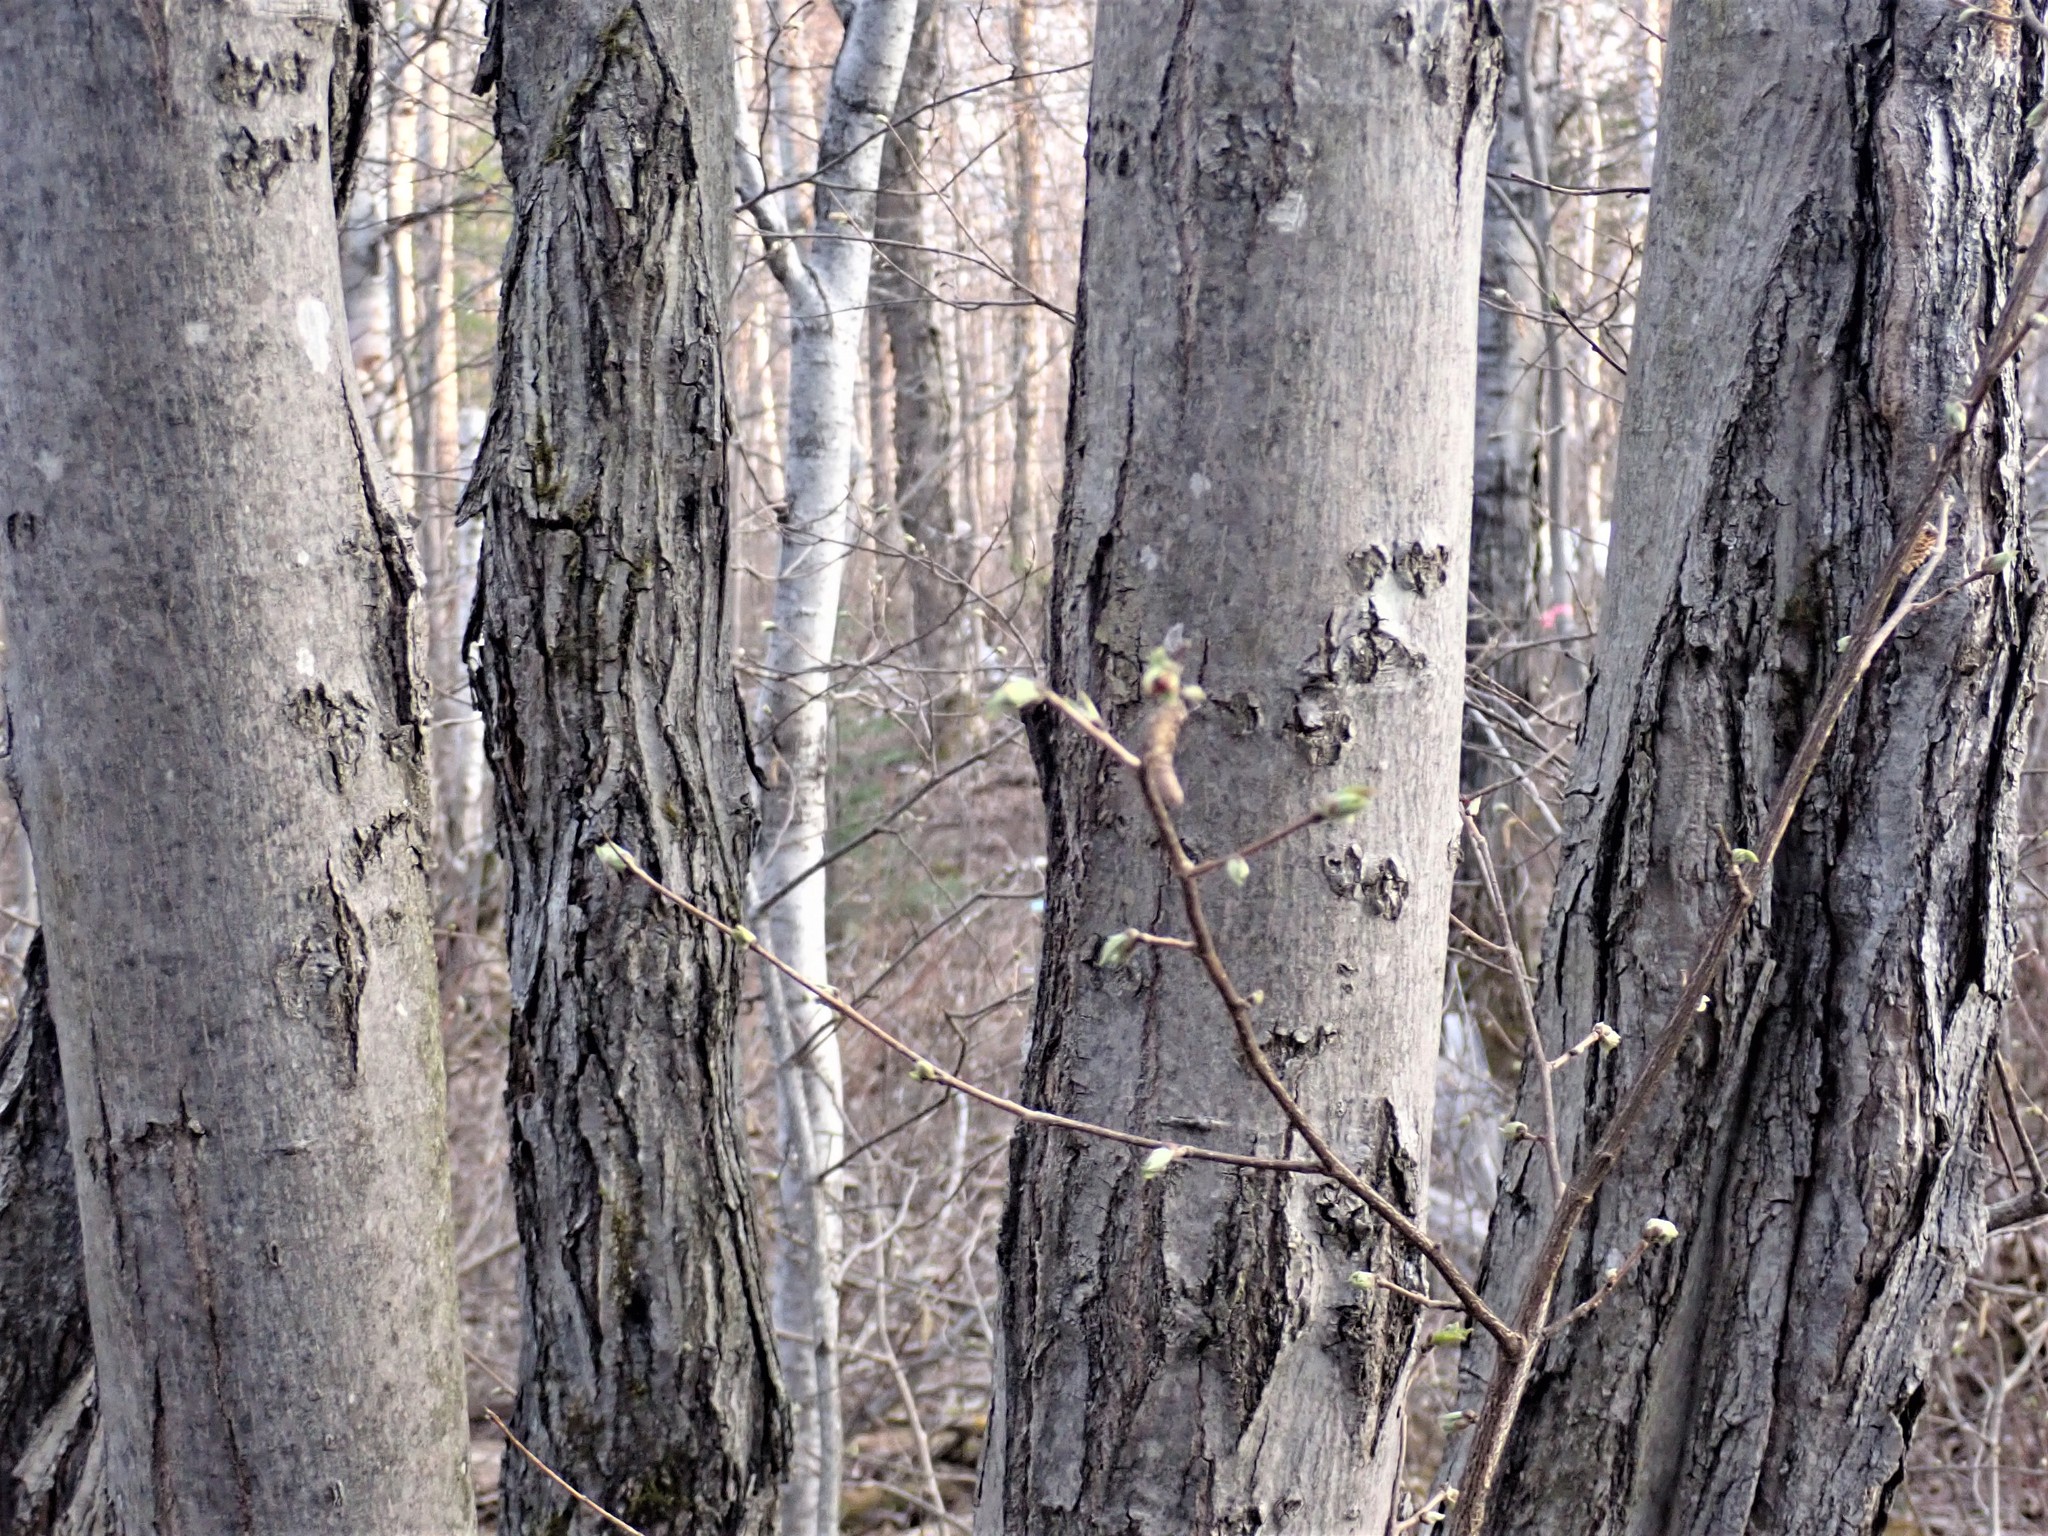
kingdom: Plantae
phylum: Tracheophyta
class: Magnoliopsida
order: Sapindales
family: Sapindaceae
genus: Acer
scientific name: Acer rubrum
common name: Red maple
